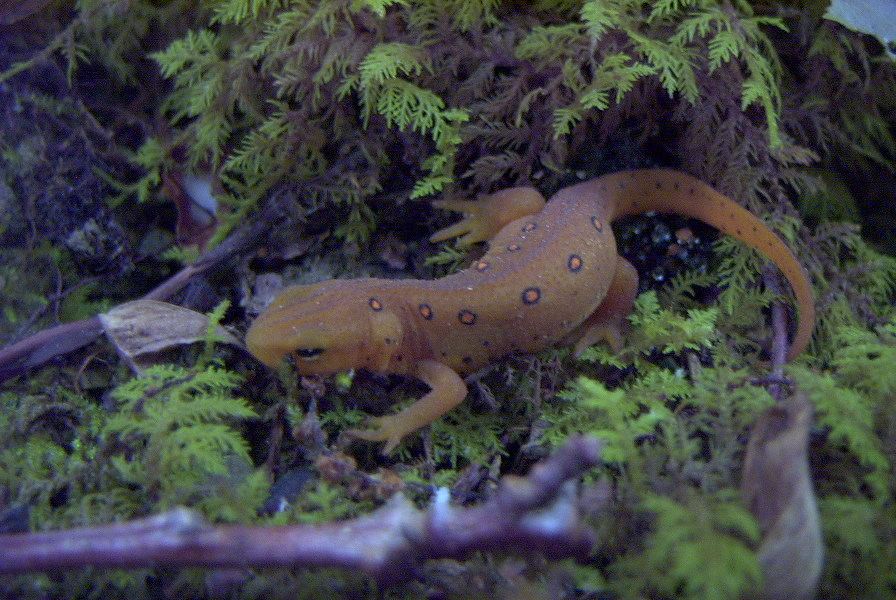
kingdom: Animalia
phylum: Chordata
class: Amphibia
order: Caudata
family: Salamandridae
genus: Notophthalmus
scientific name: Notophthalmus viridescens
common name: Eastern newt
